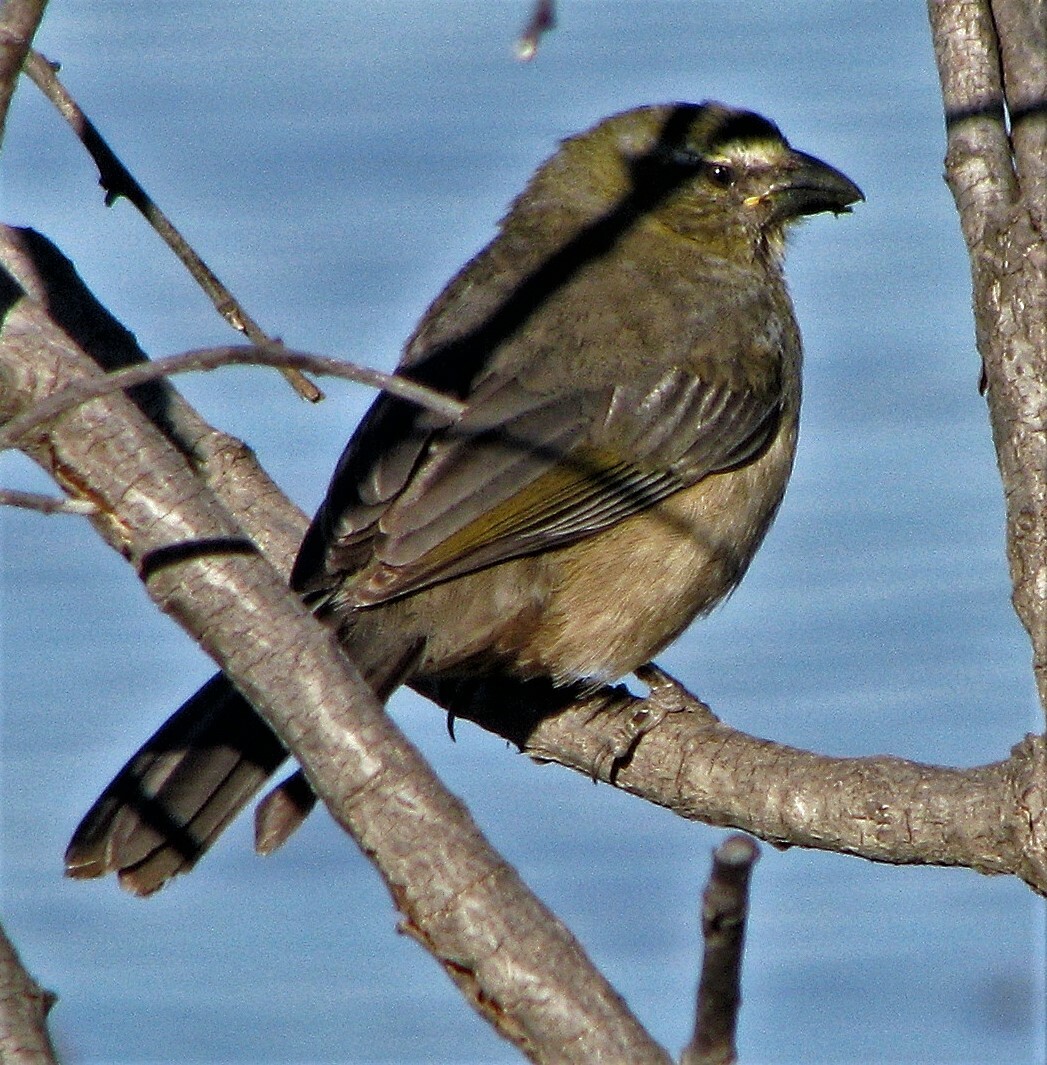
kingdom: Animalia
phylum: Chordata
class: Aves
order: Passeriformes
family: Thraupidae
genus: Saltator
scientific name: Saltator coerulescens
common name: Grayish saltator
